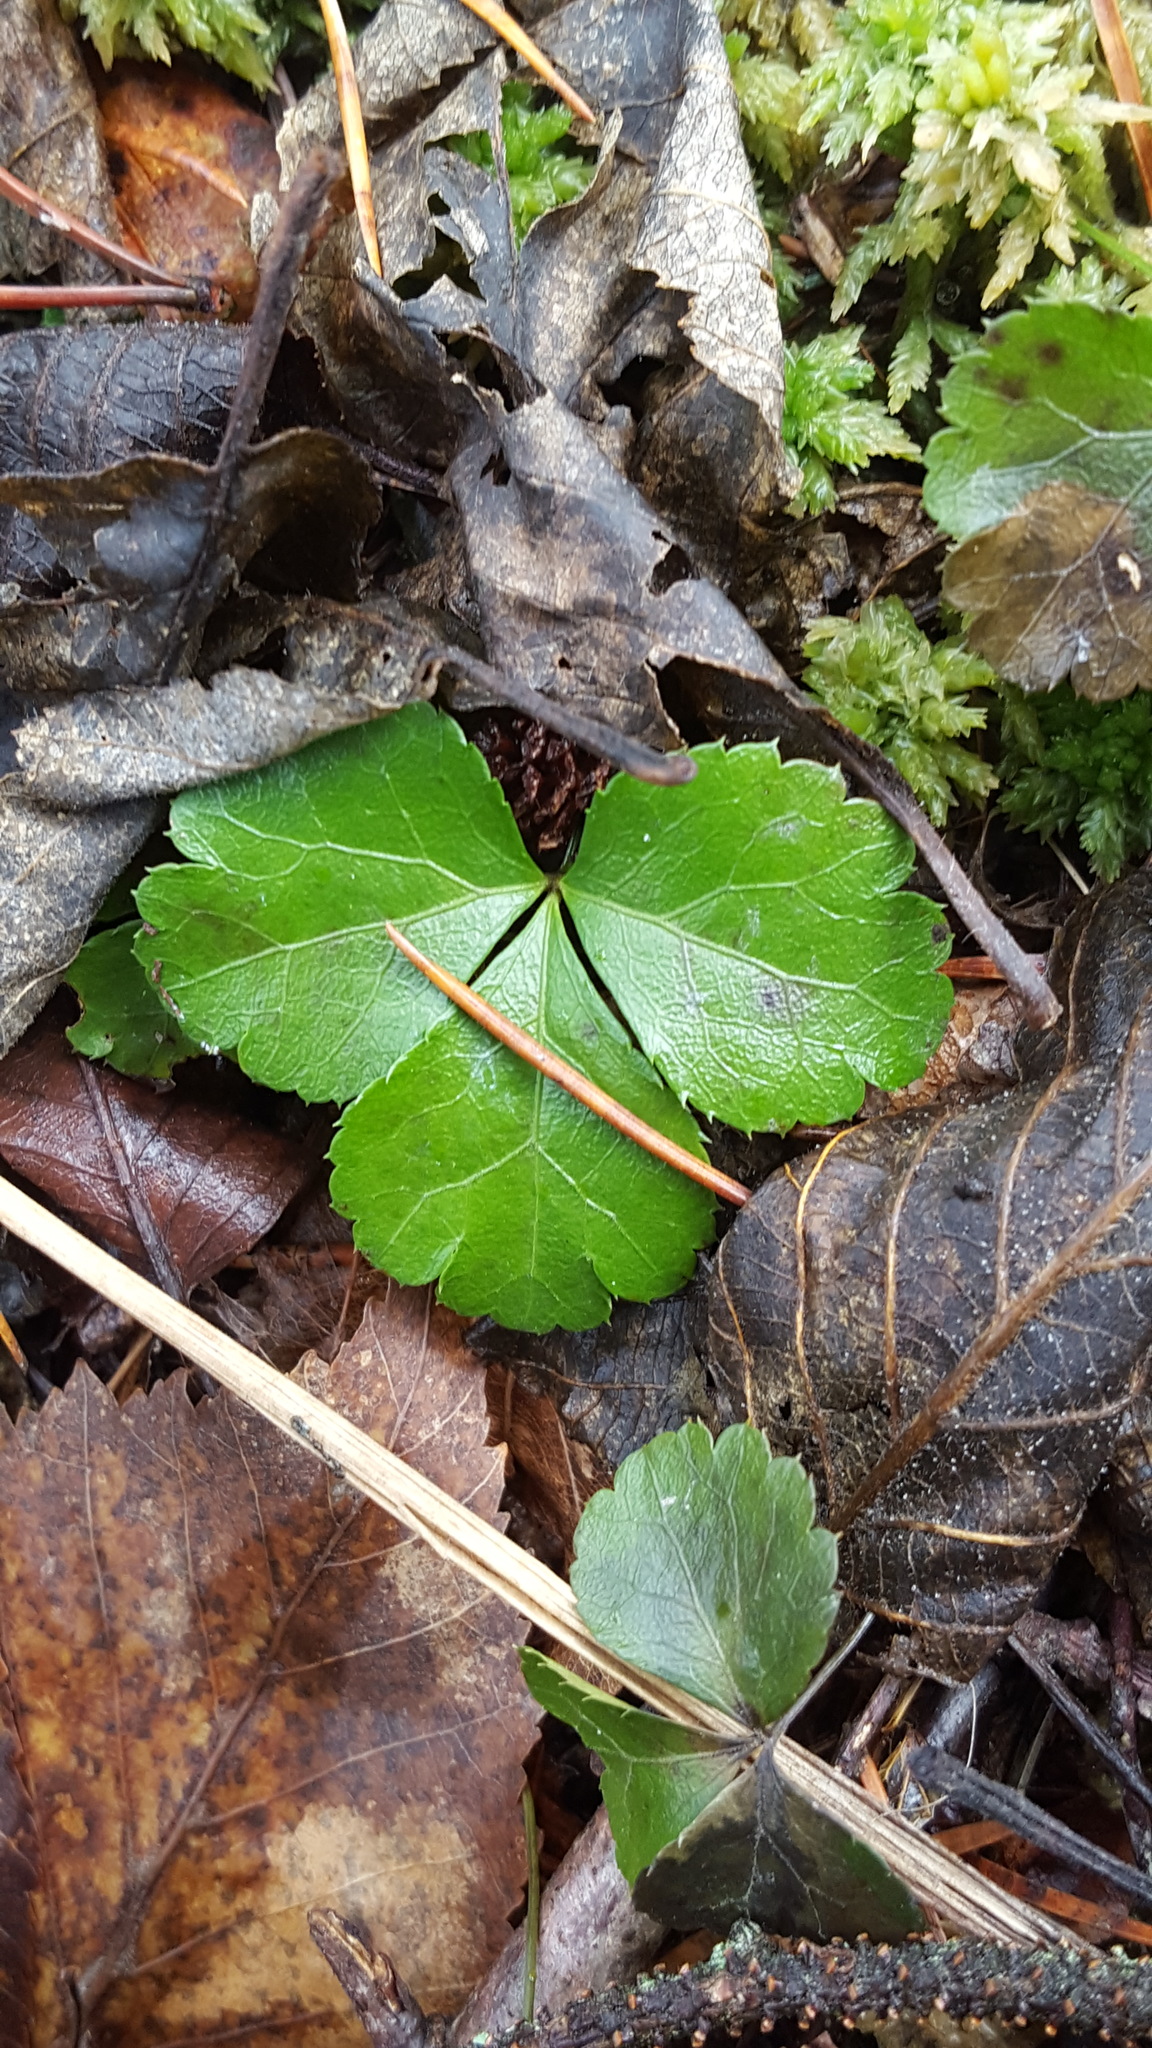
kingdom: Plantae
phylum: Tracheophyta
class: Magnoliopsida
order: Ranunculales
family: Ranunculaceae
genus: Coptis
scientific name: Coptis trifolia
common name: Canker-root
